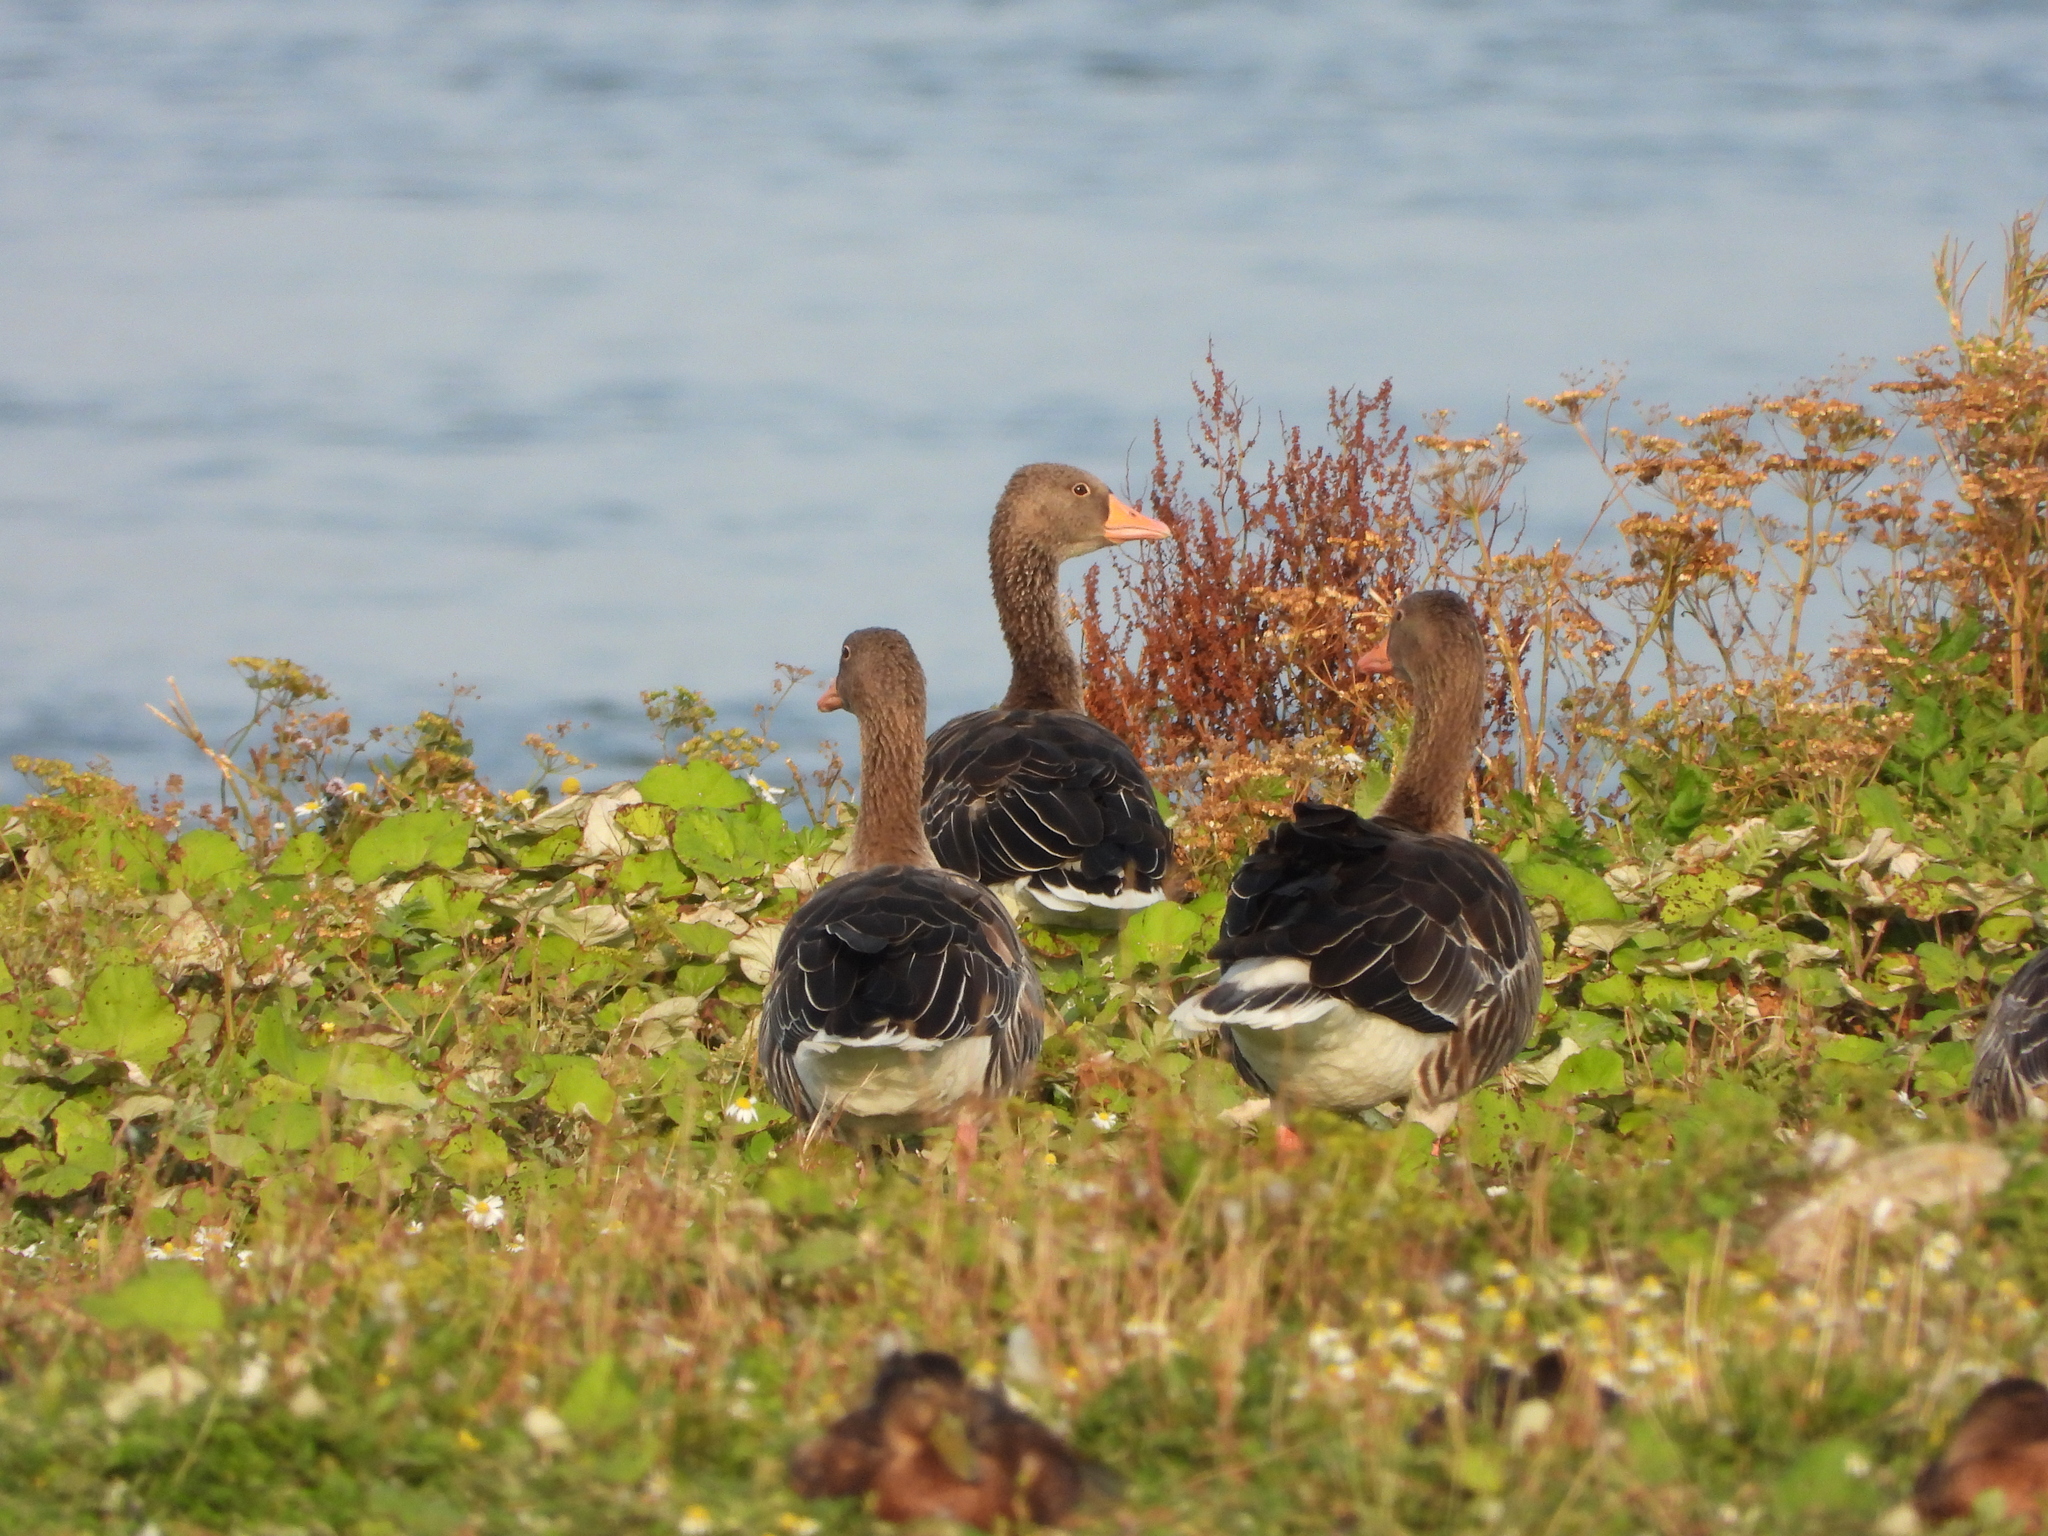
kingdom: Animalia
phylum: Chordata
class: Aves
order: Anseriformes
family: Anatidae
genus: Anser
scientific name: Anser anser
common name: Greylag goose
